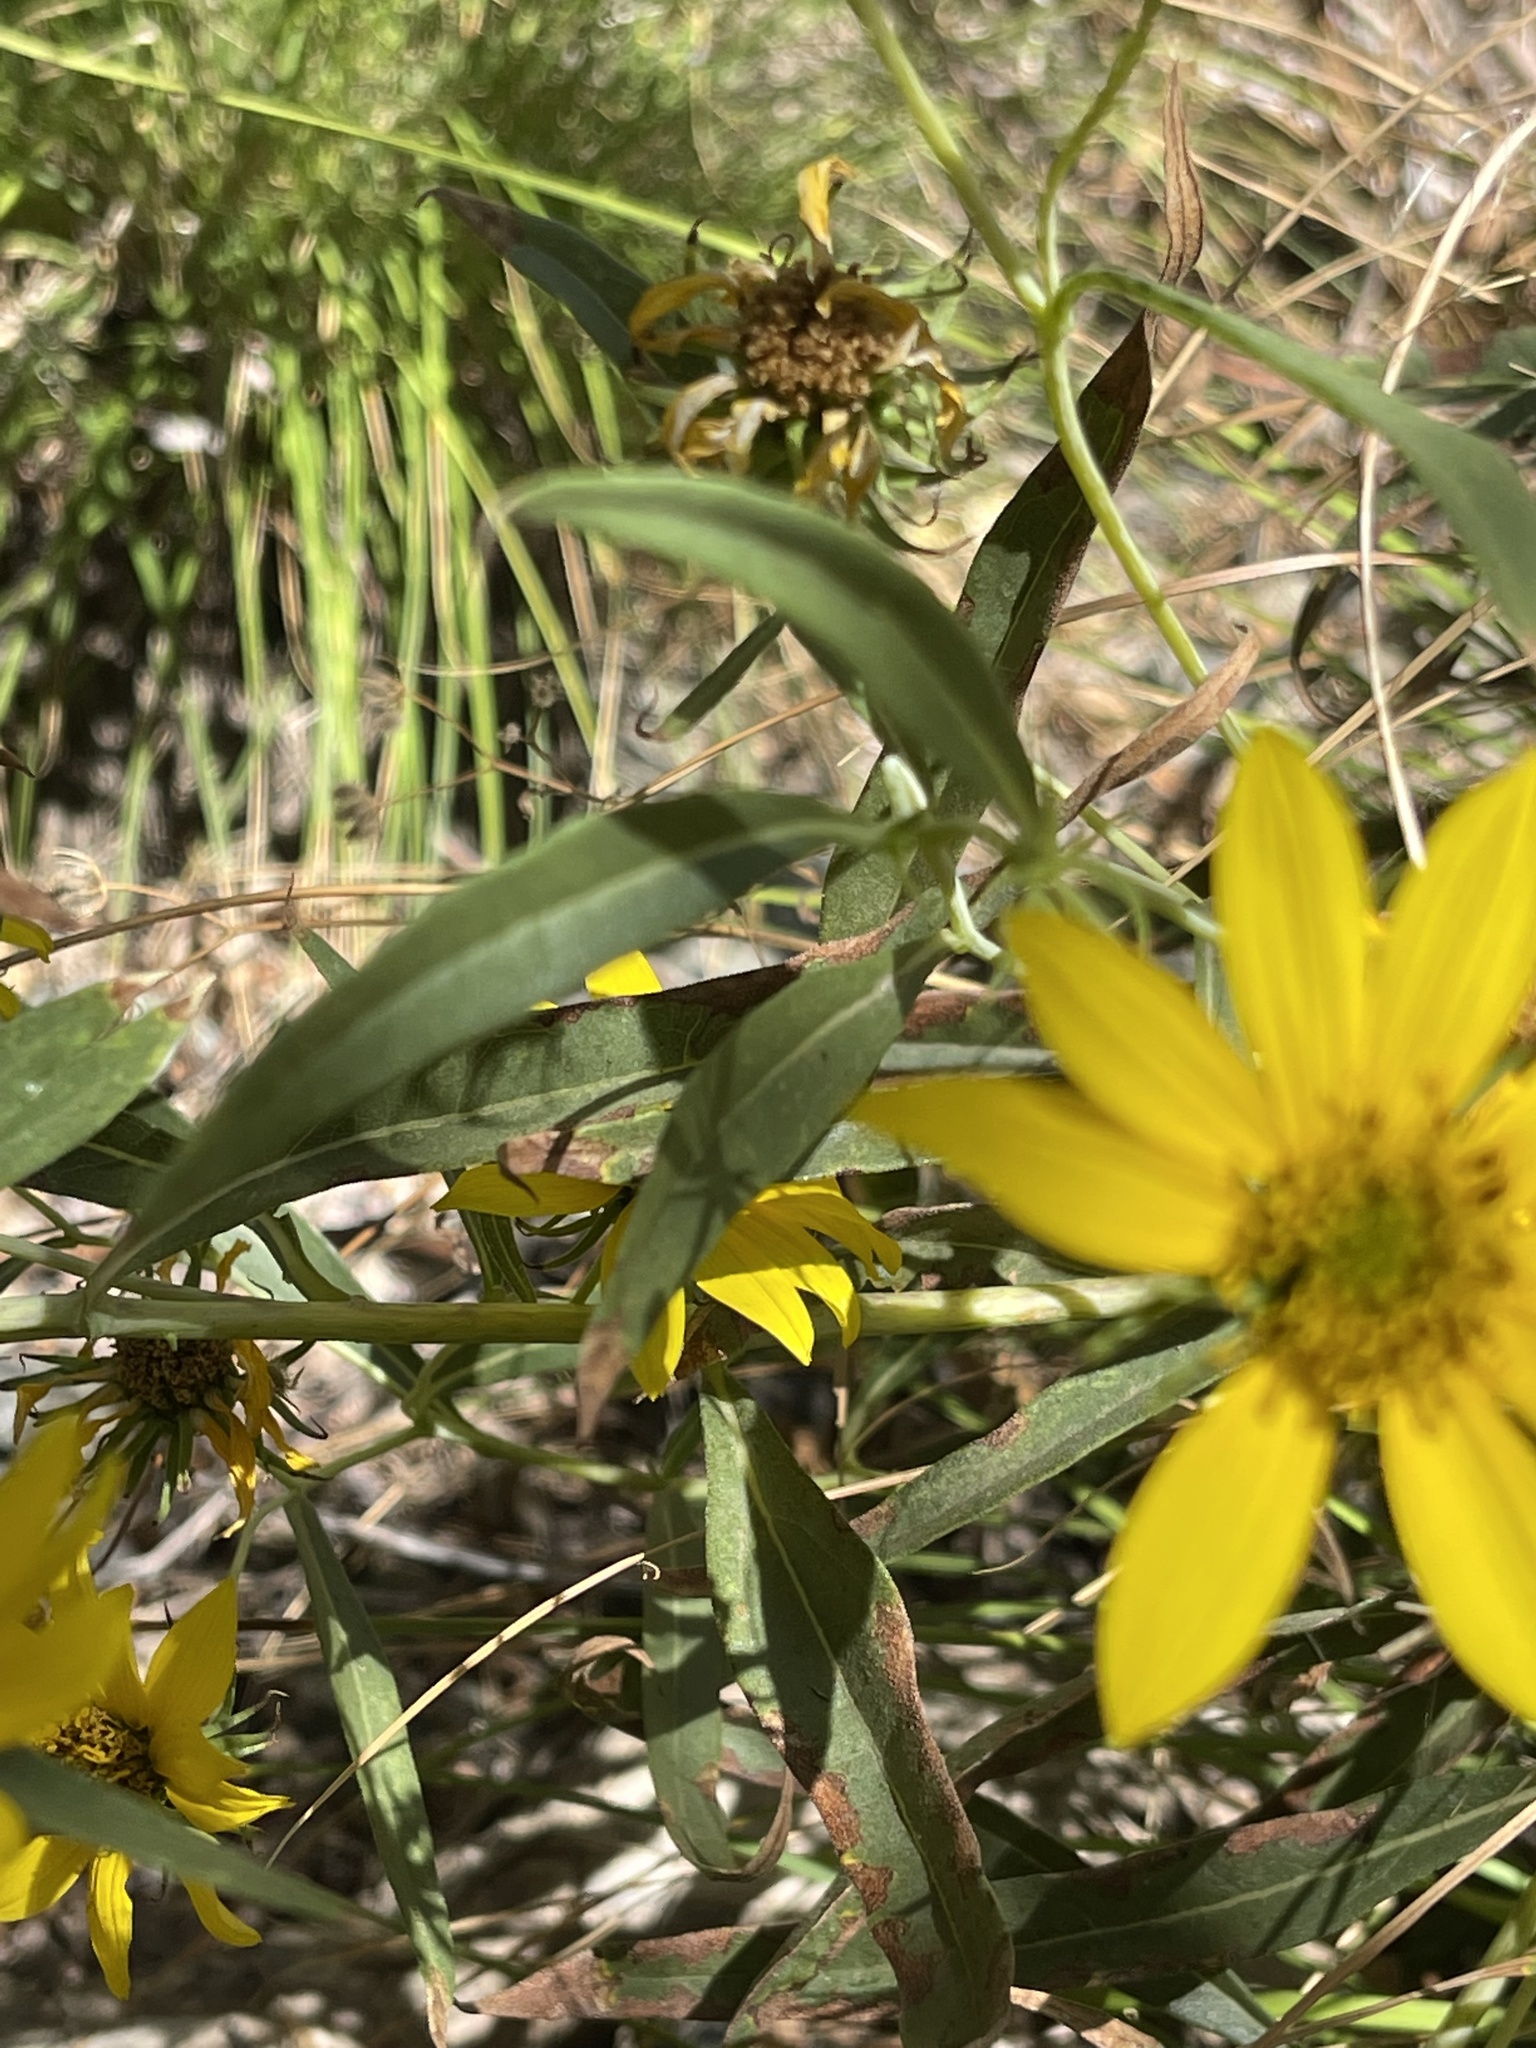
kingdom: Plantae
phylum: Tracheophyta
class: Magnoliopsida
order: Asterales
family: Asteraceae
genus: Helianthus
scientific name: Helianthus californicus
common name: California sunflower
